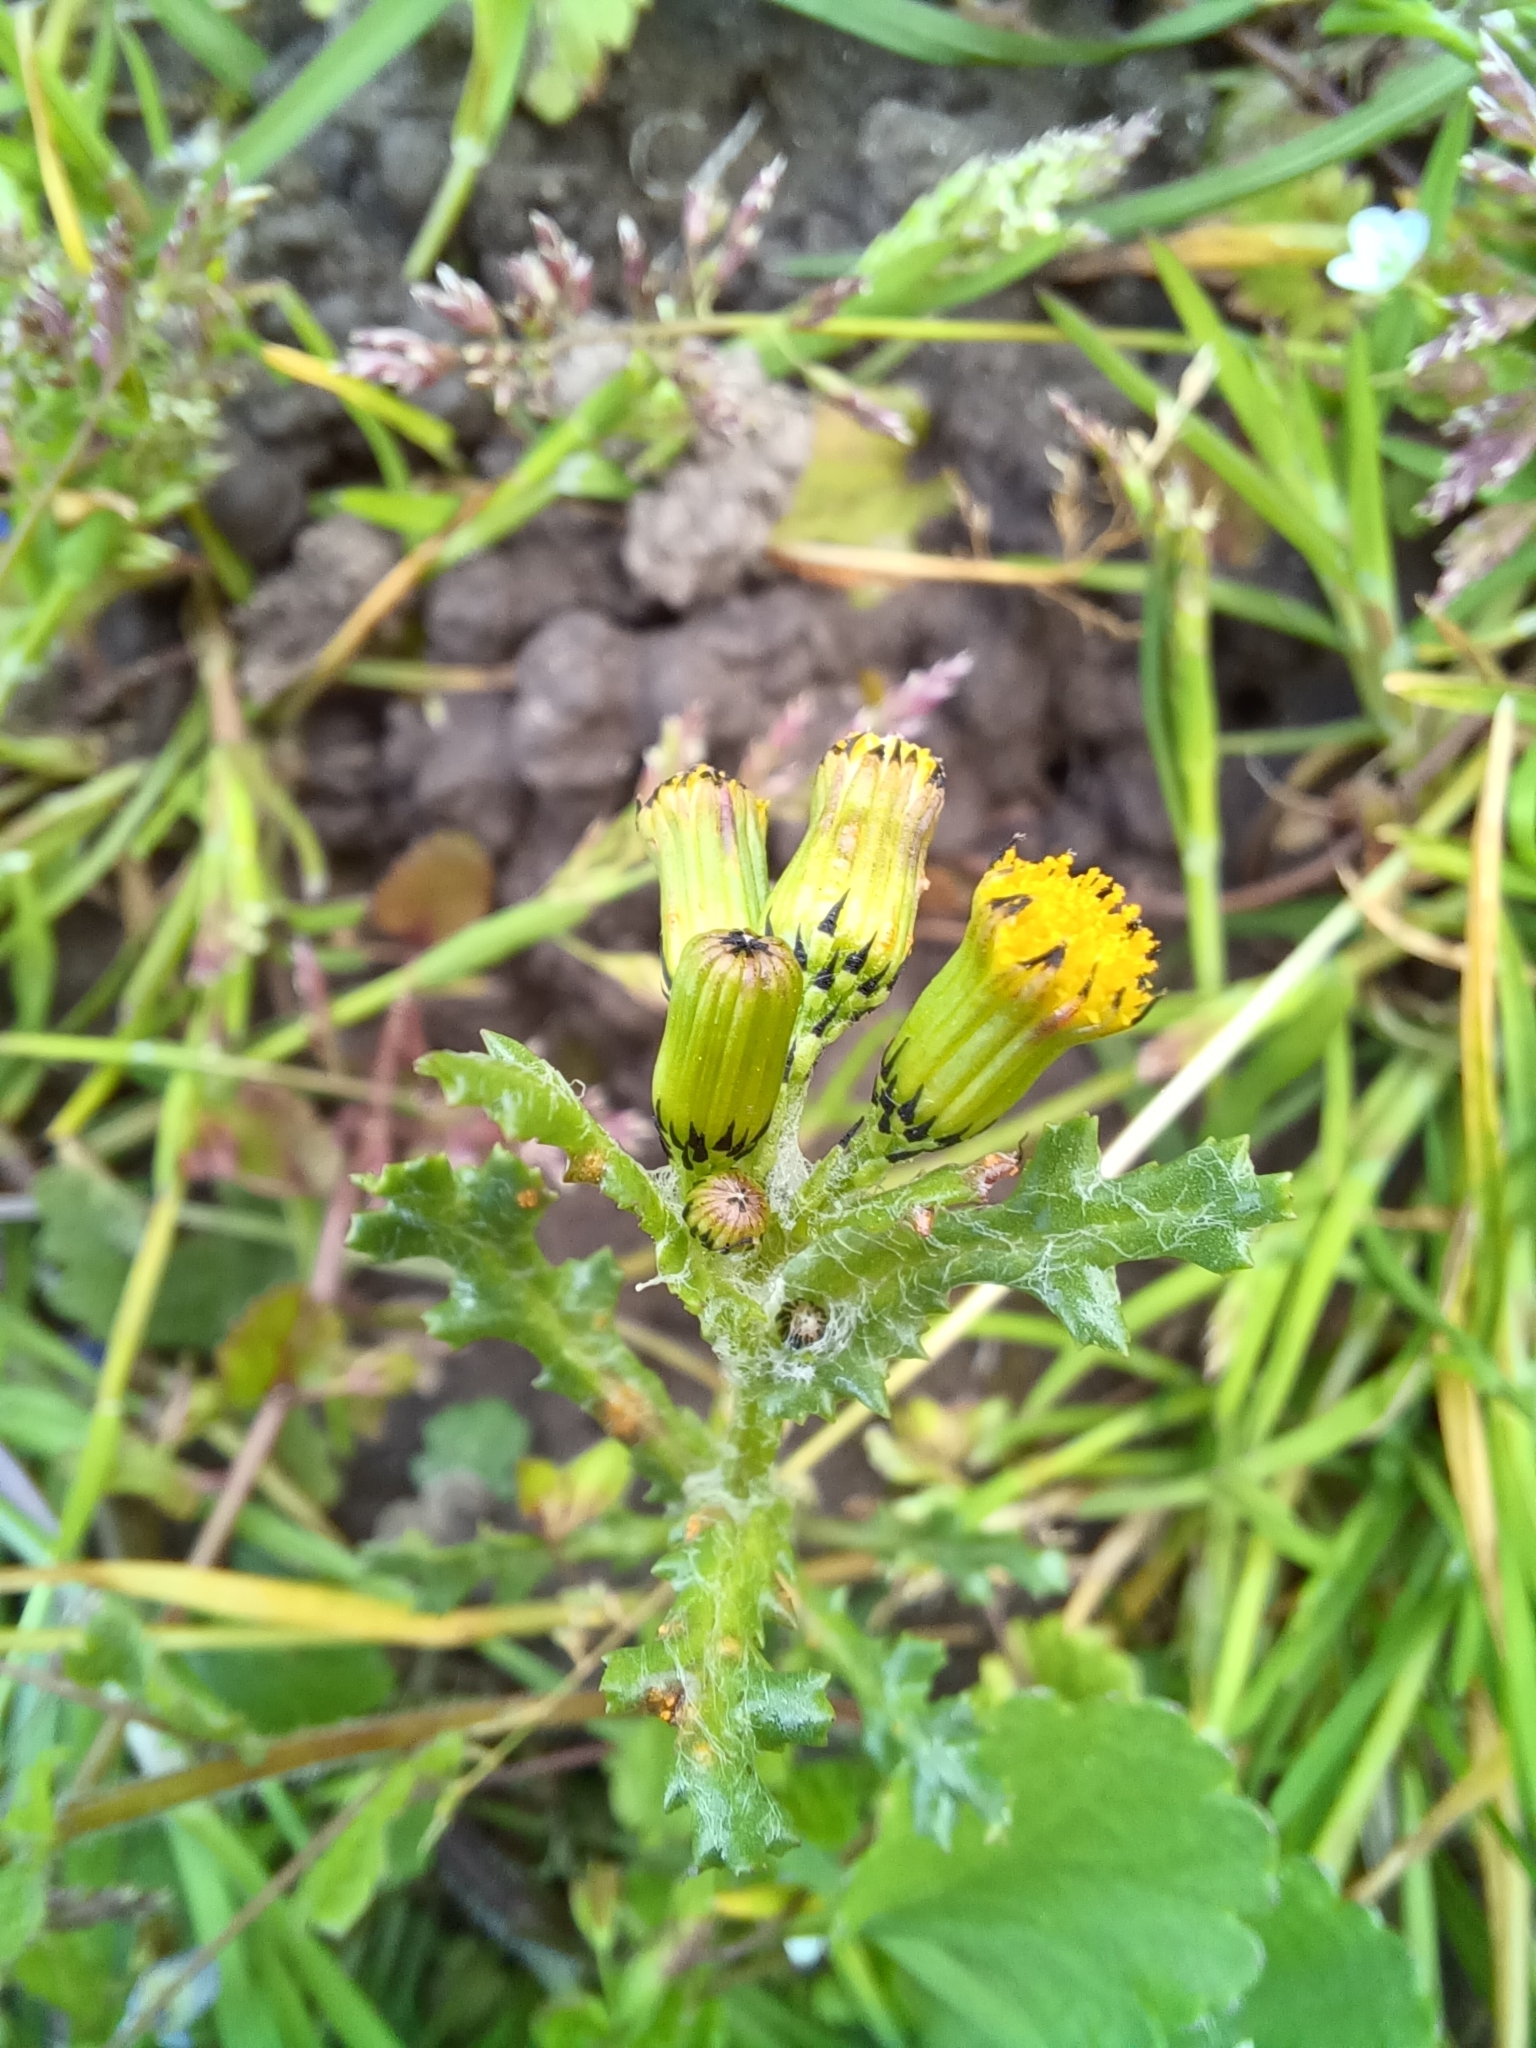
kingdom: Plantae
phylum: Tracheophyta
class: Magnoliopsida
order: Asterales
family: Asteraceae
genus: Senecio
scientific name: Senecio vulgaris
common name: Old-man-in-the-spring
